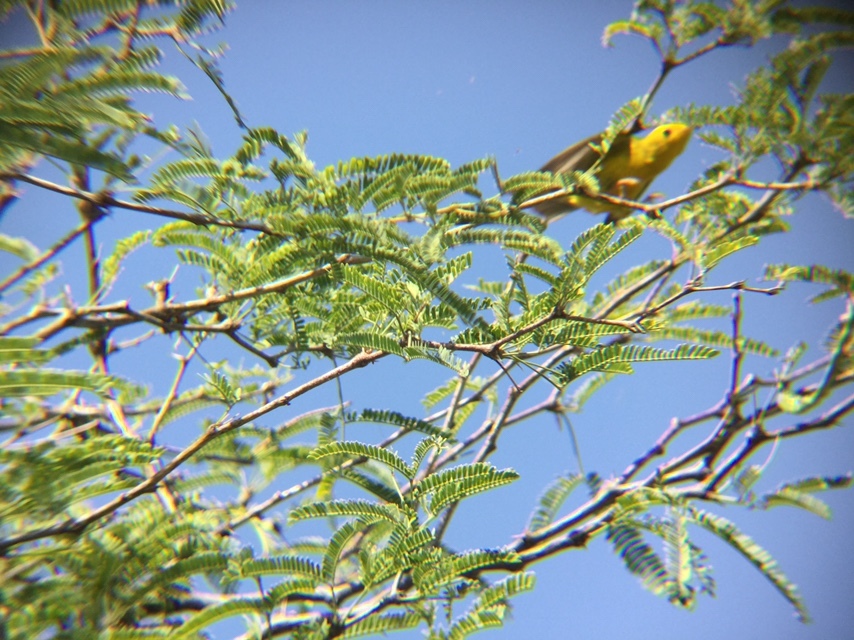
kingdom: Animalia
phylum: Chordata
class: Aves
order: Passeriformes
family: Parulidae
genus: Cardellina
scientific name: Cardellina pusilla
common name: Wilson's warbler
